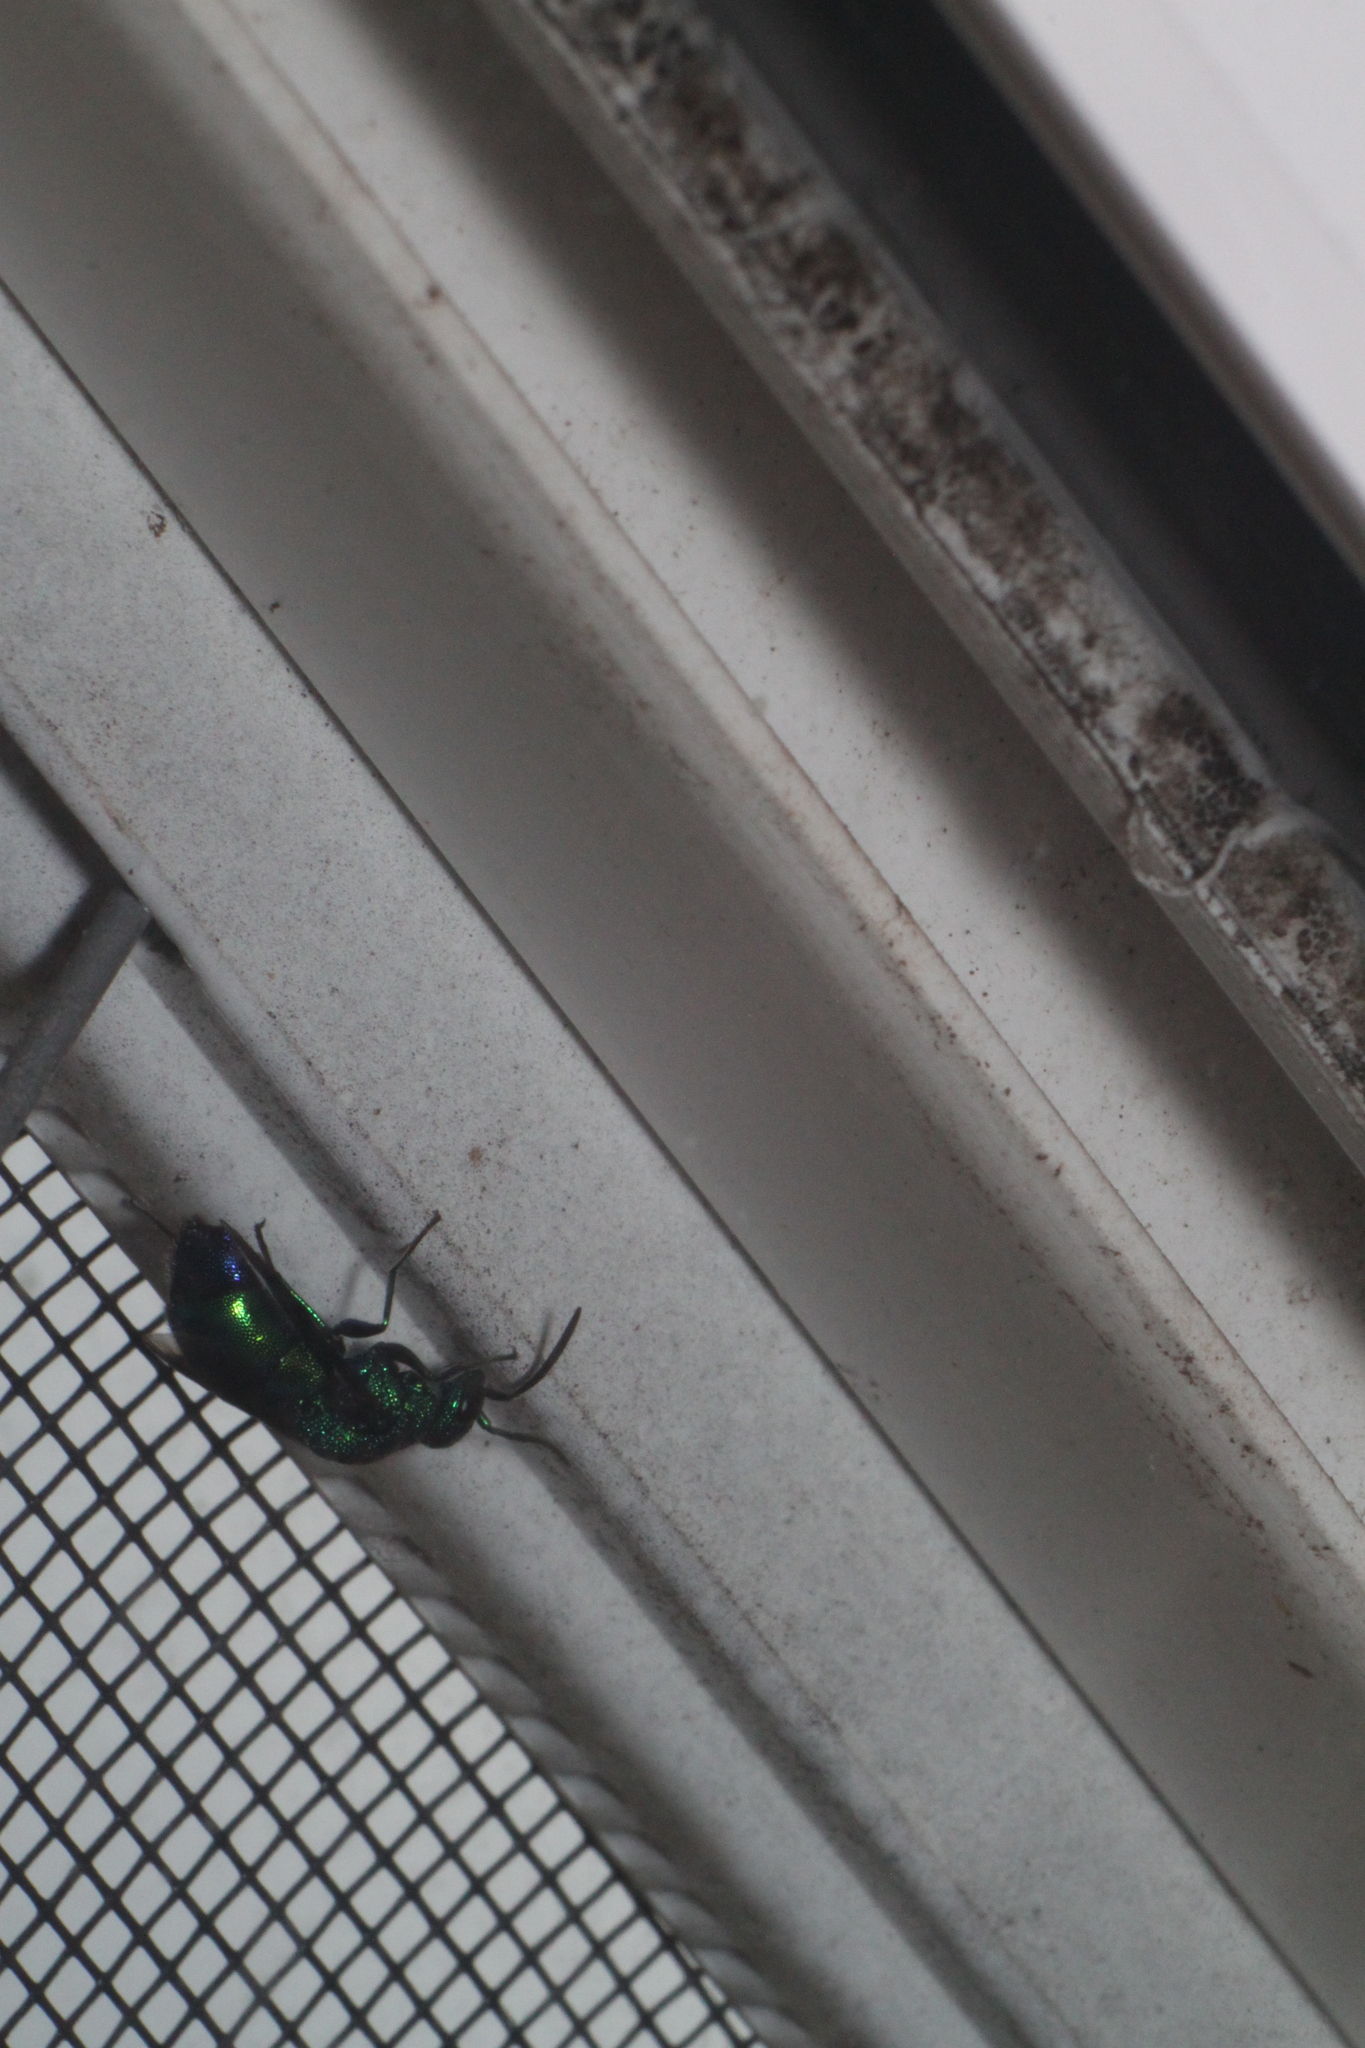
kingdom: Animalia
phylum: Arthropoda
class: Insecta
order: Hymenoptera
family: Chrysididae
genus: Chrysis
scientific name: Chrysis angolensis
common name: Cuckoo wasp
